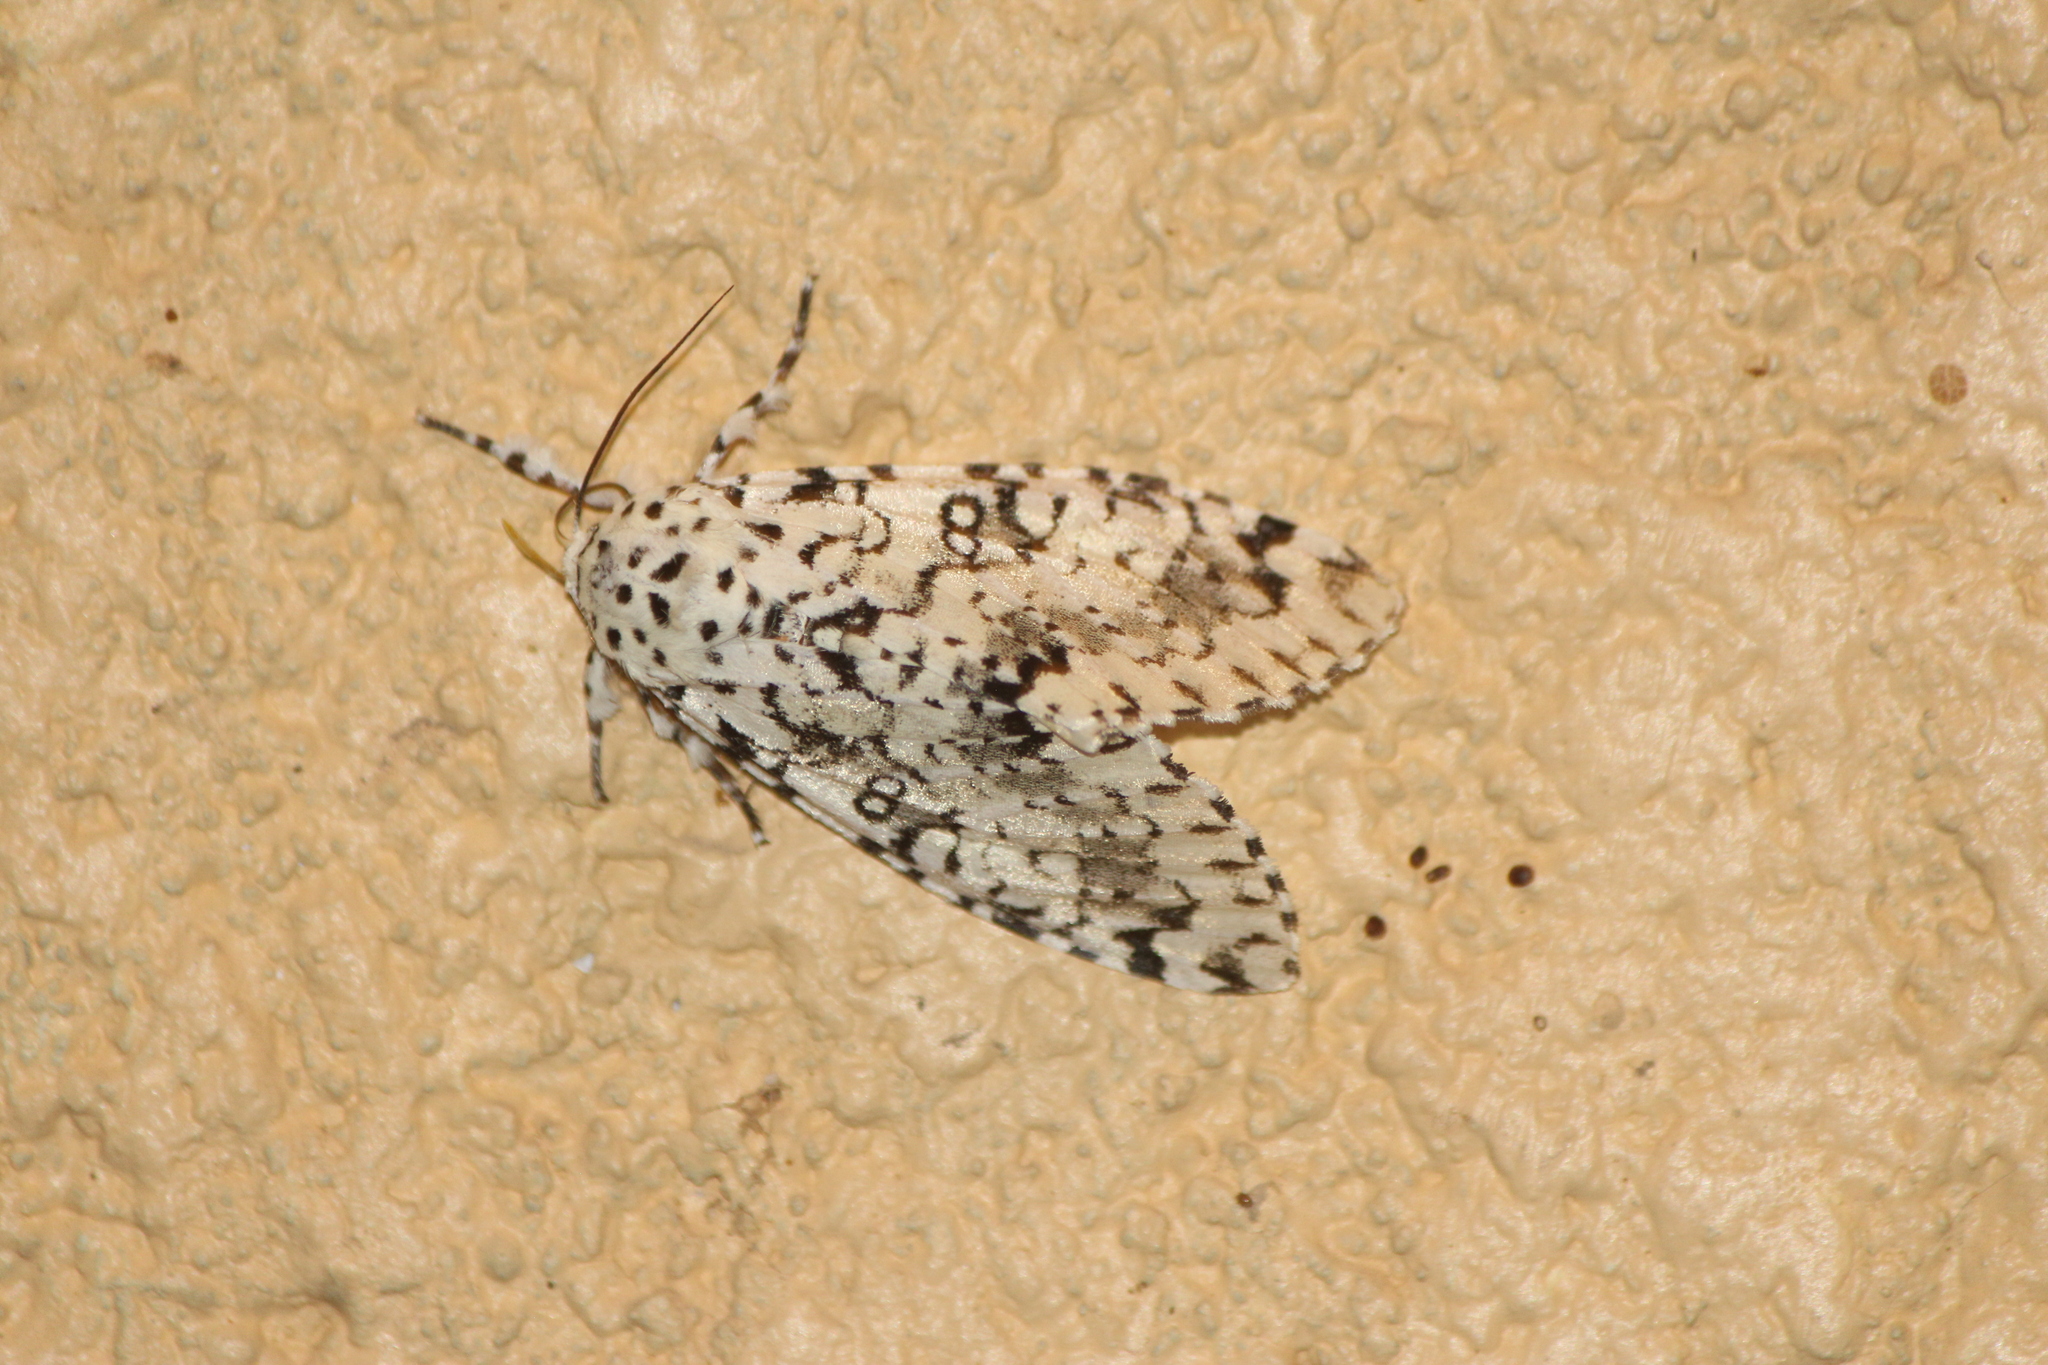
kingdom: Animalia
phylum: Arthropoda
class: Insecta
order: Lepidoptera
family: Noctuidae
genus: Lichnoptera
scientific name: Lichnoptera decora
